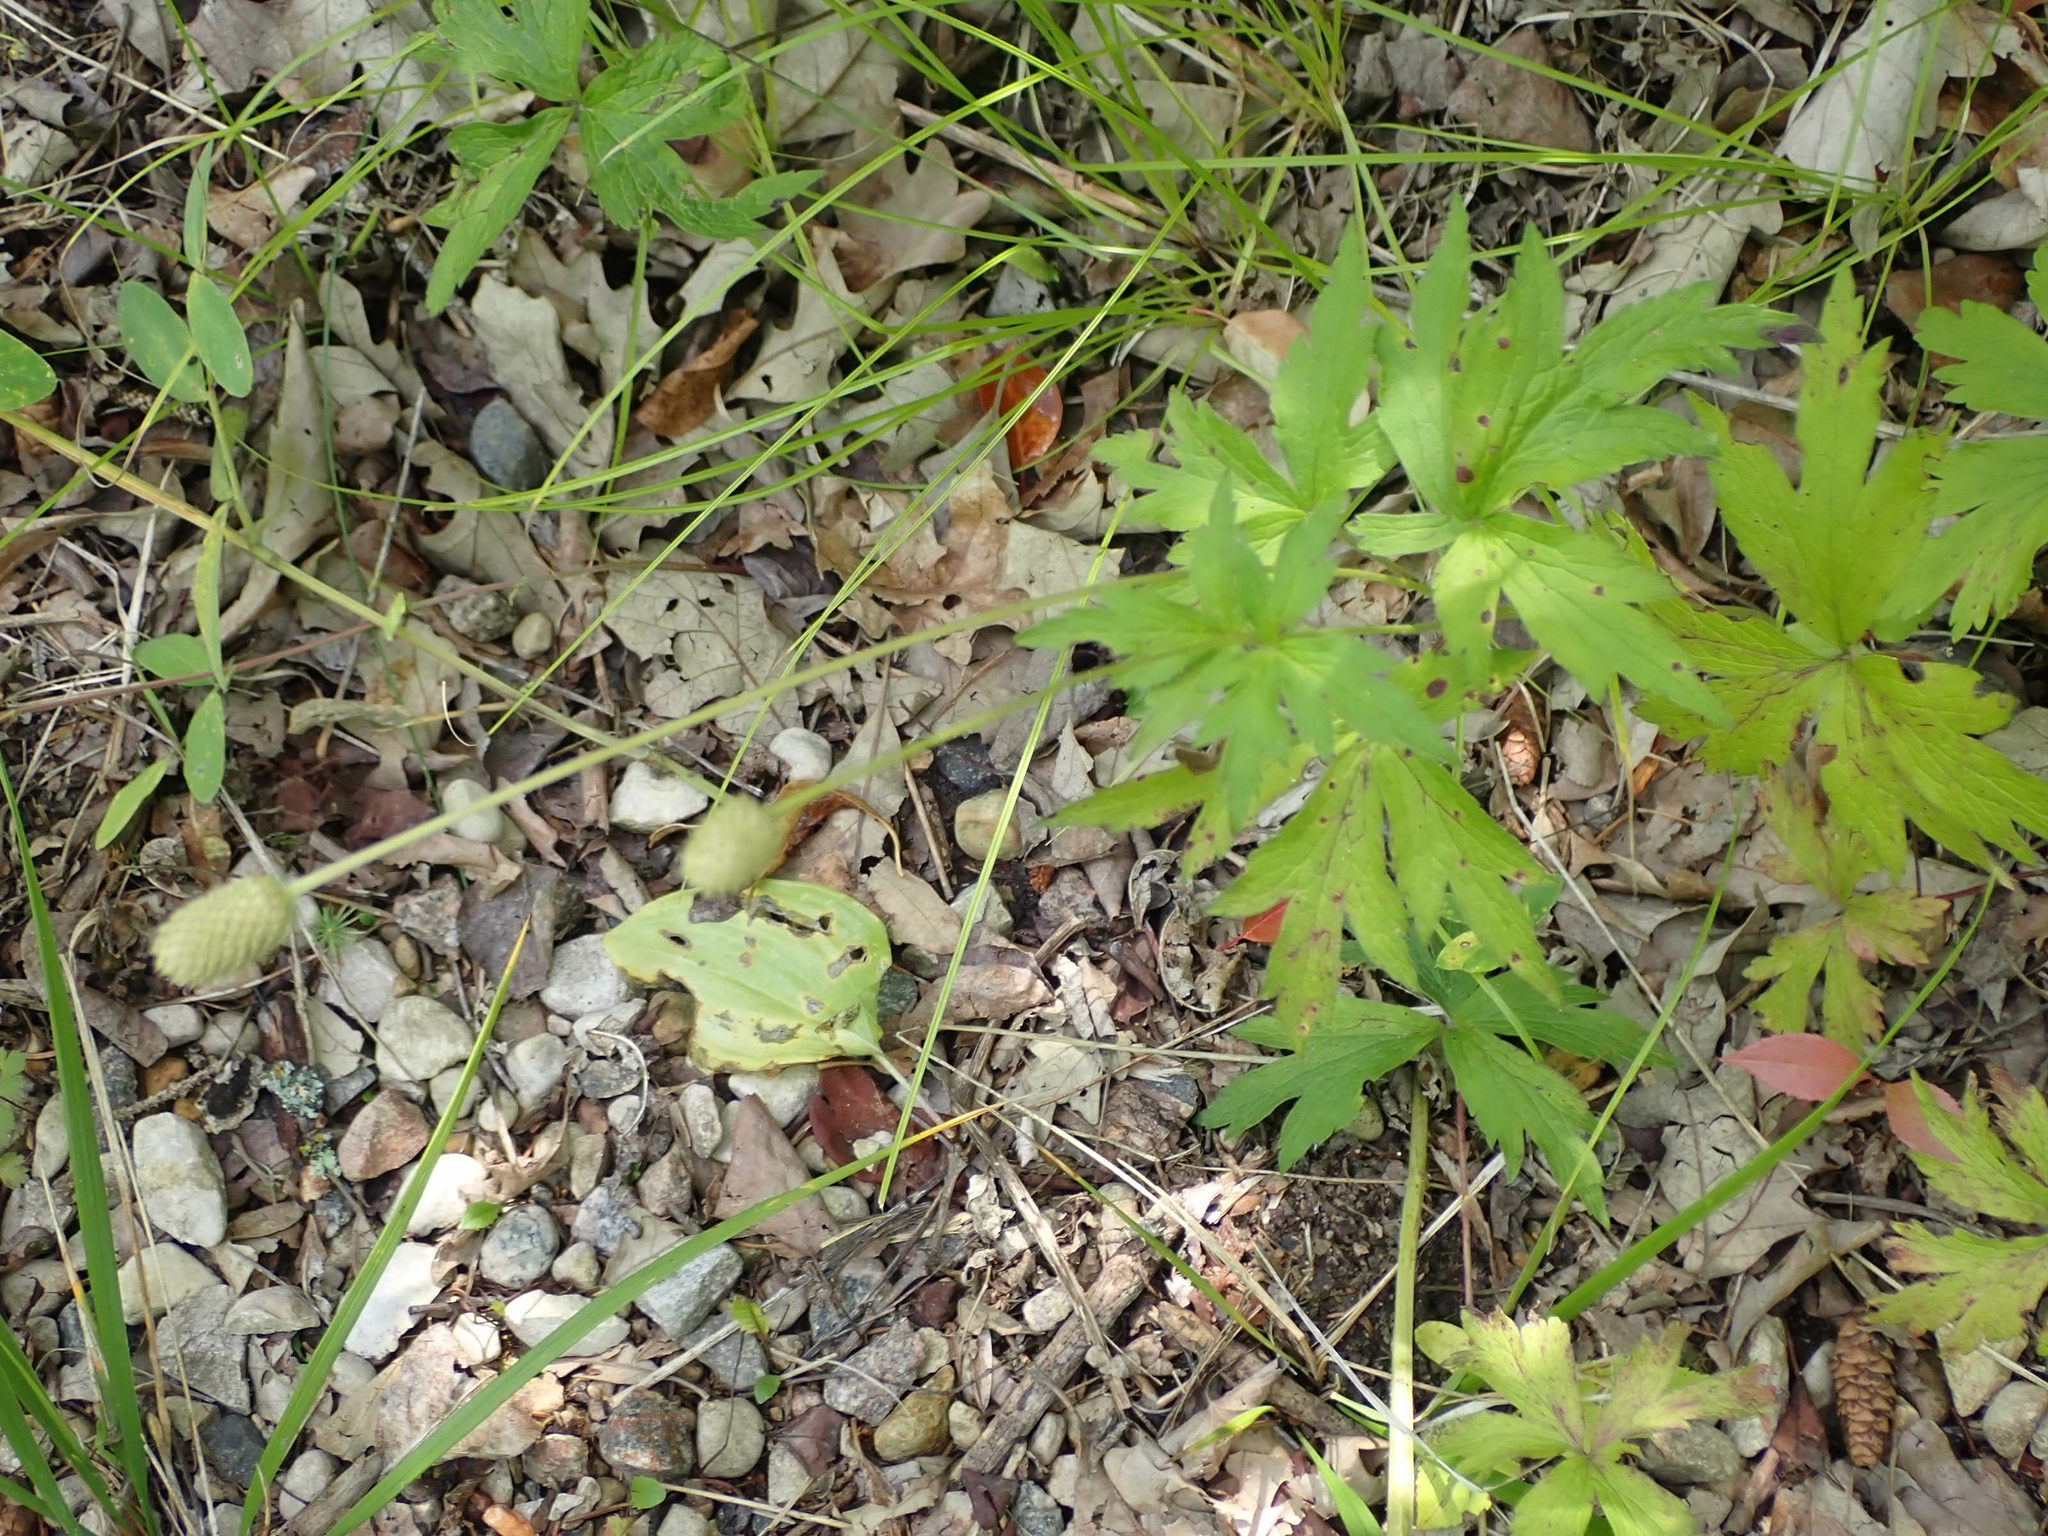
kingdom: Plantae
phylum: Tracheophyta
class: Magnoliopsida
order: Ranunculales
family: Ranunculaceae
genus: Anemone
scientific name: Anemone cylindrica
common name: Candle anemone
